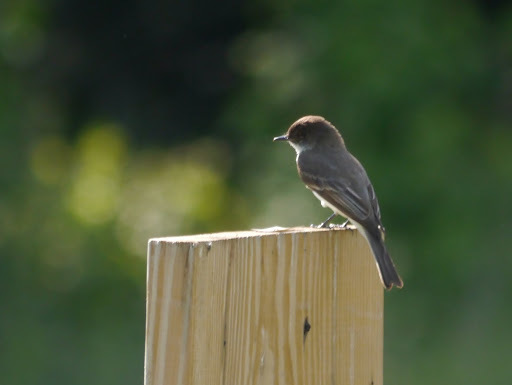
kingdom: Animalia
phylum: Chordata
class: Aves
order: Passeriformes
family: Tyrannidae
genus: Sayornis
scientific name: Sayornis phoebe
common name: Eastern phoebe
